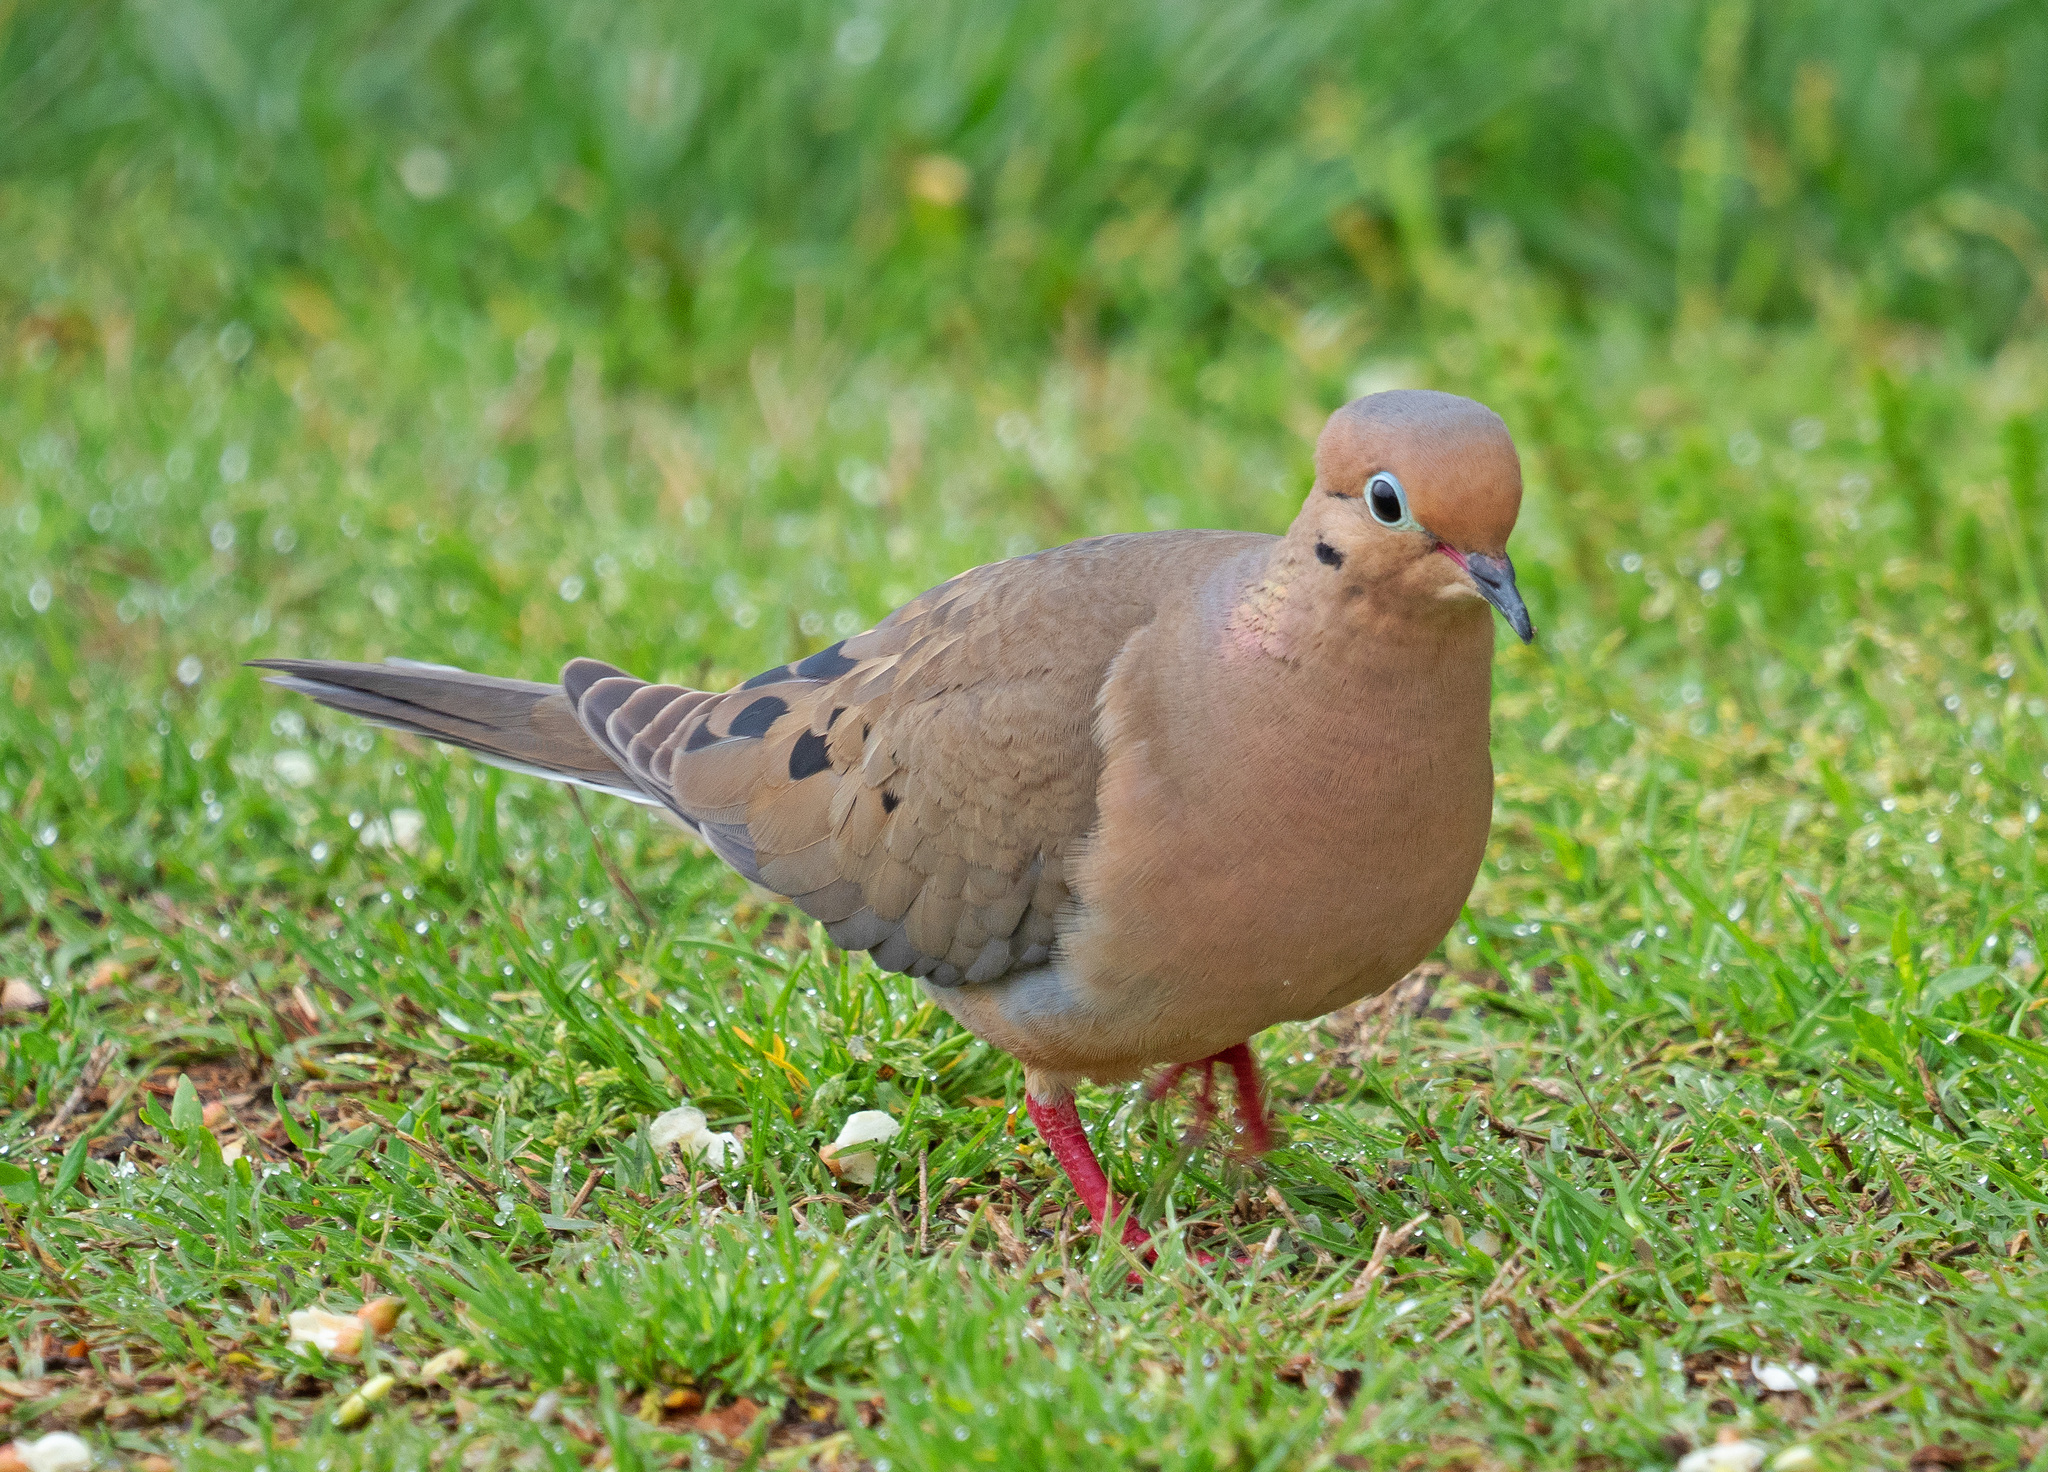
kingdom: Animalia
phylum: Chordata
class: Aves
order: Columbiformes
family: Columbidae
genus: Zenaida
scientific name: Zenaida macroura
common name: Mourning dove
